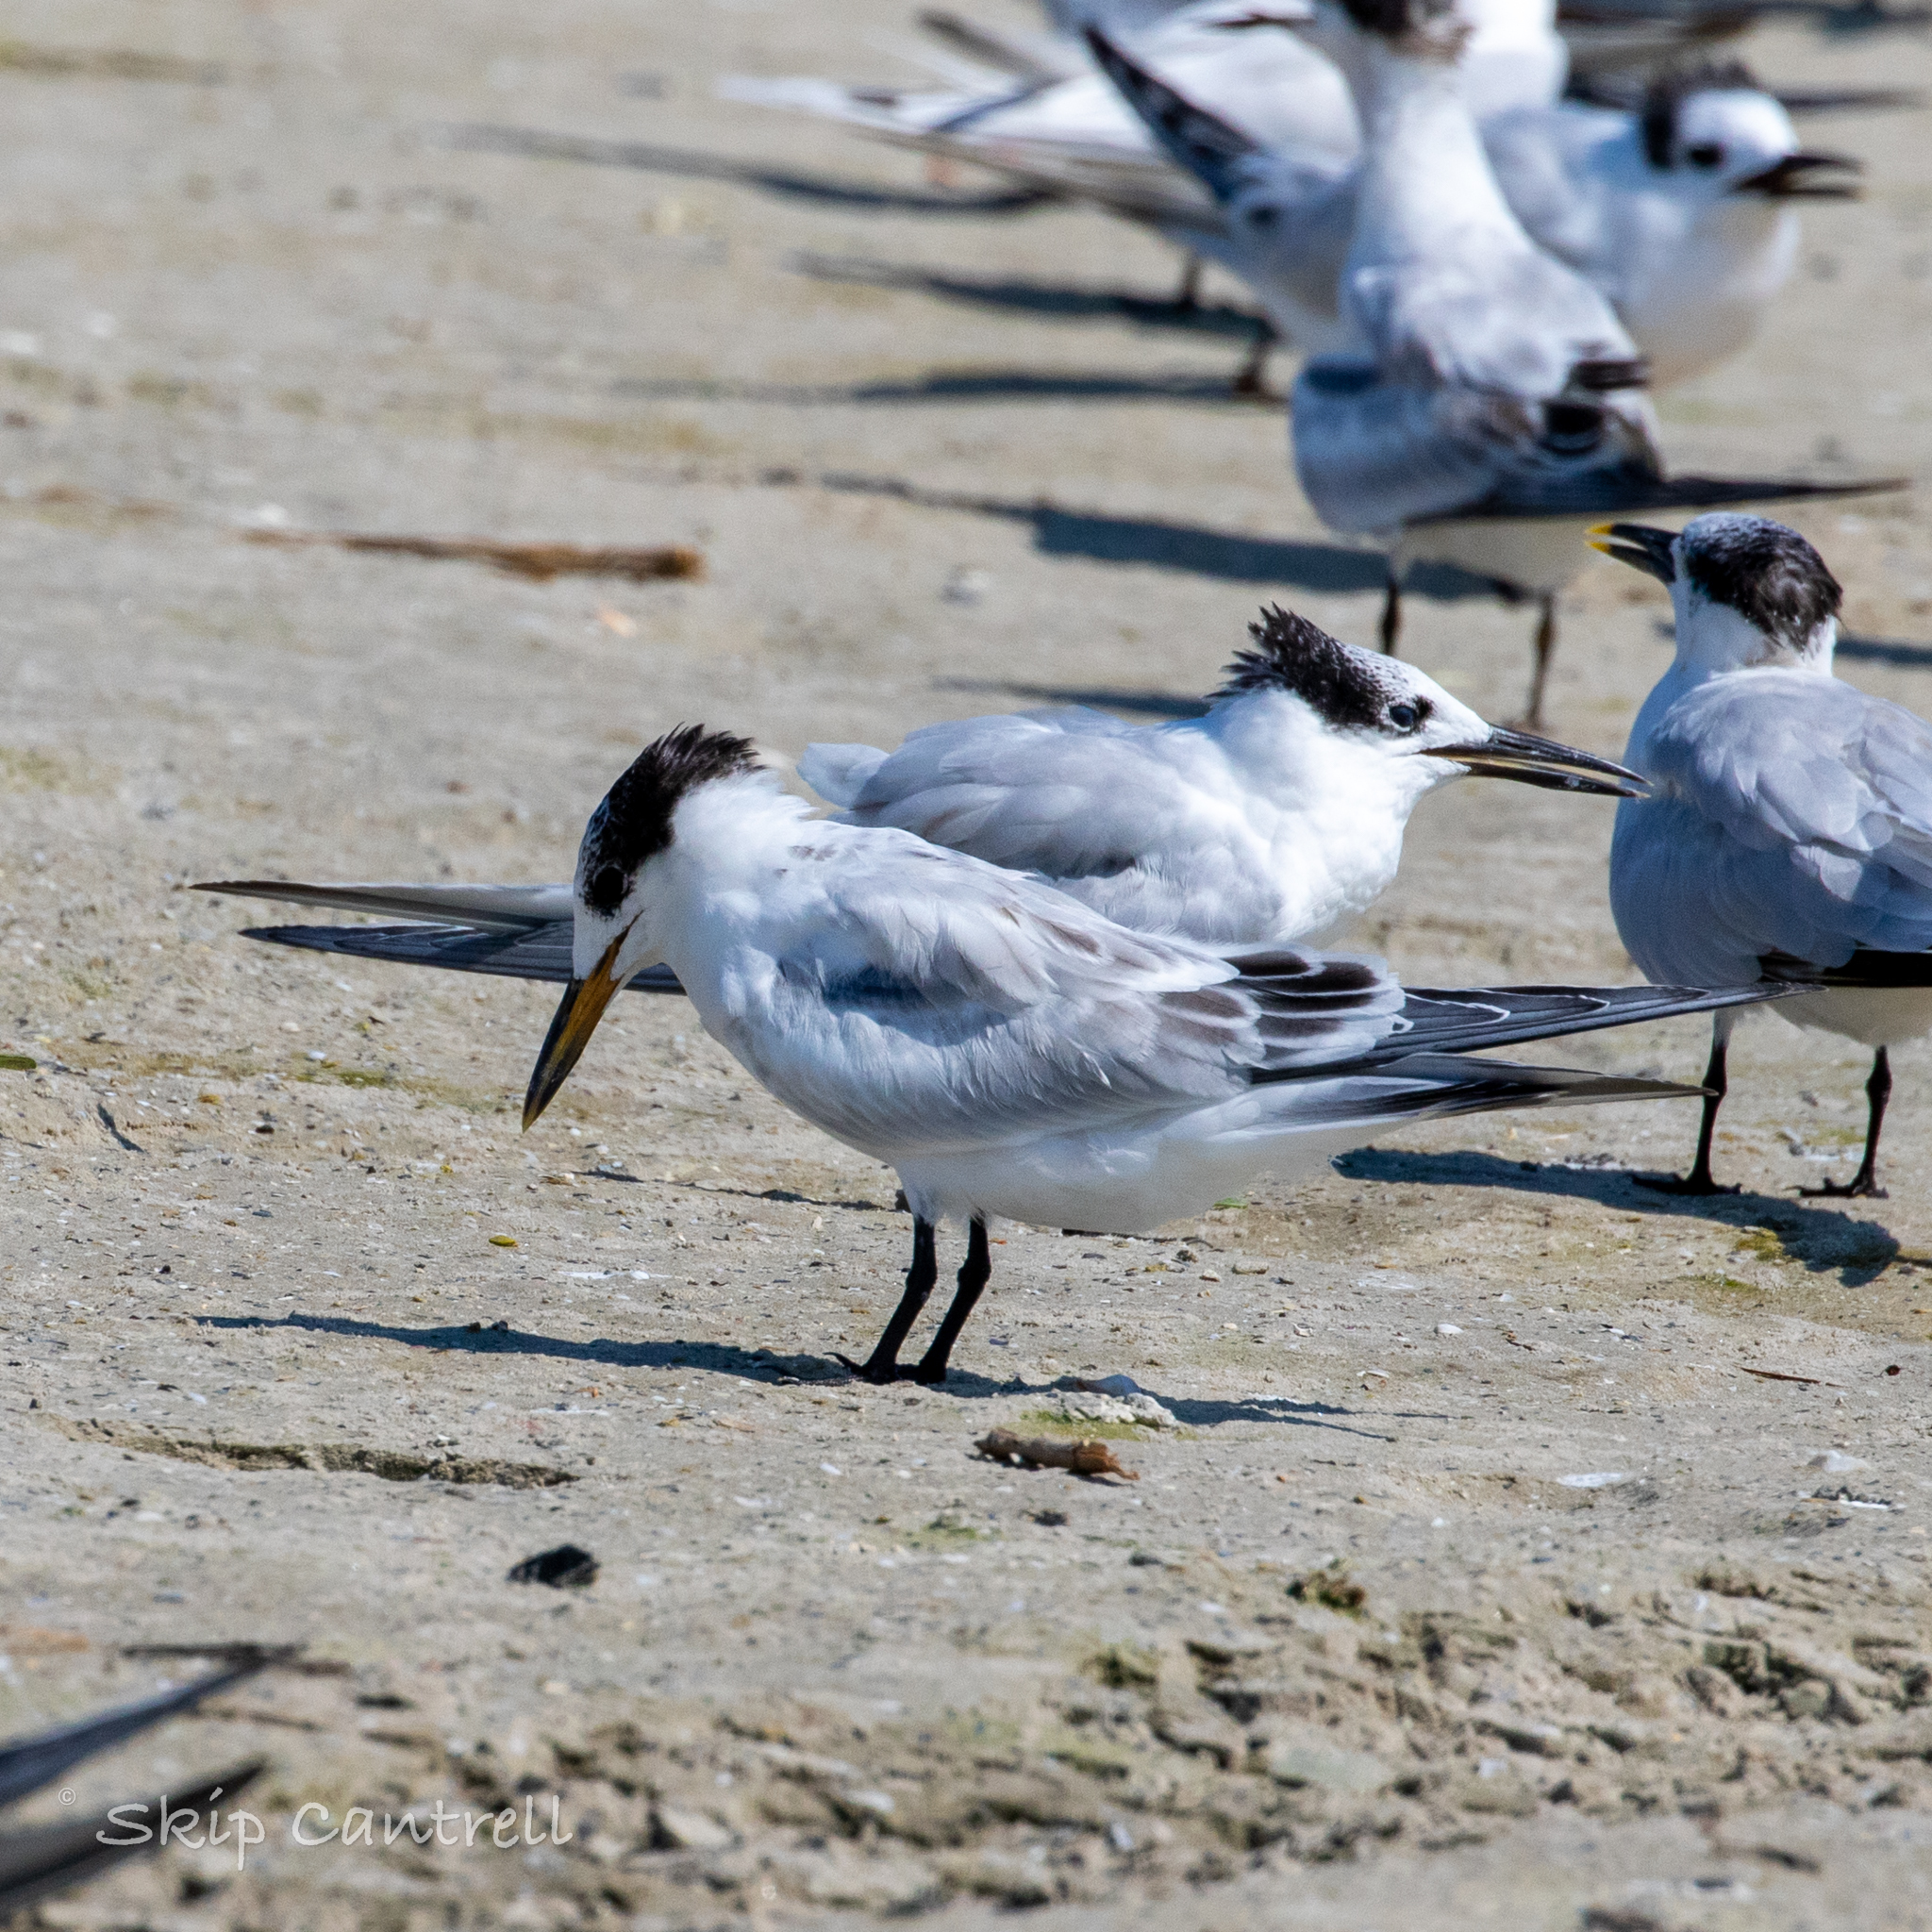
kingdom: Animalia
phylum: Chordata
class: Aves
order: Charadriiformes
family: Laridae
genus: Thalasseus
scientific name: Thalasseus sandvicensis
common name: Sandwich tern
